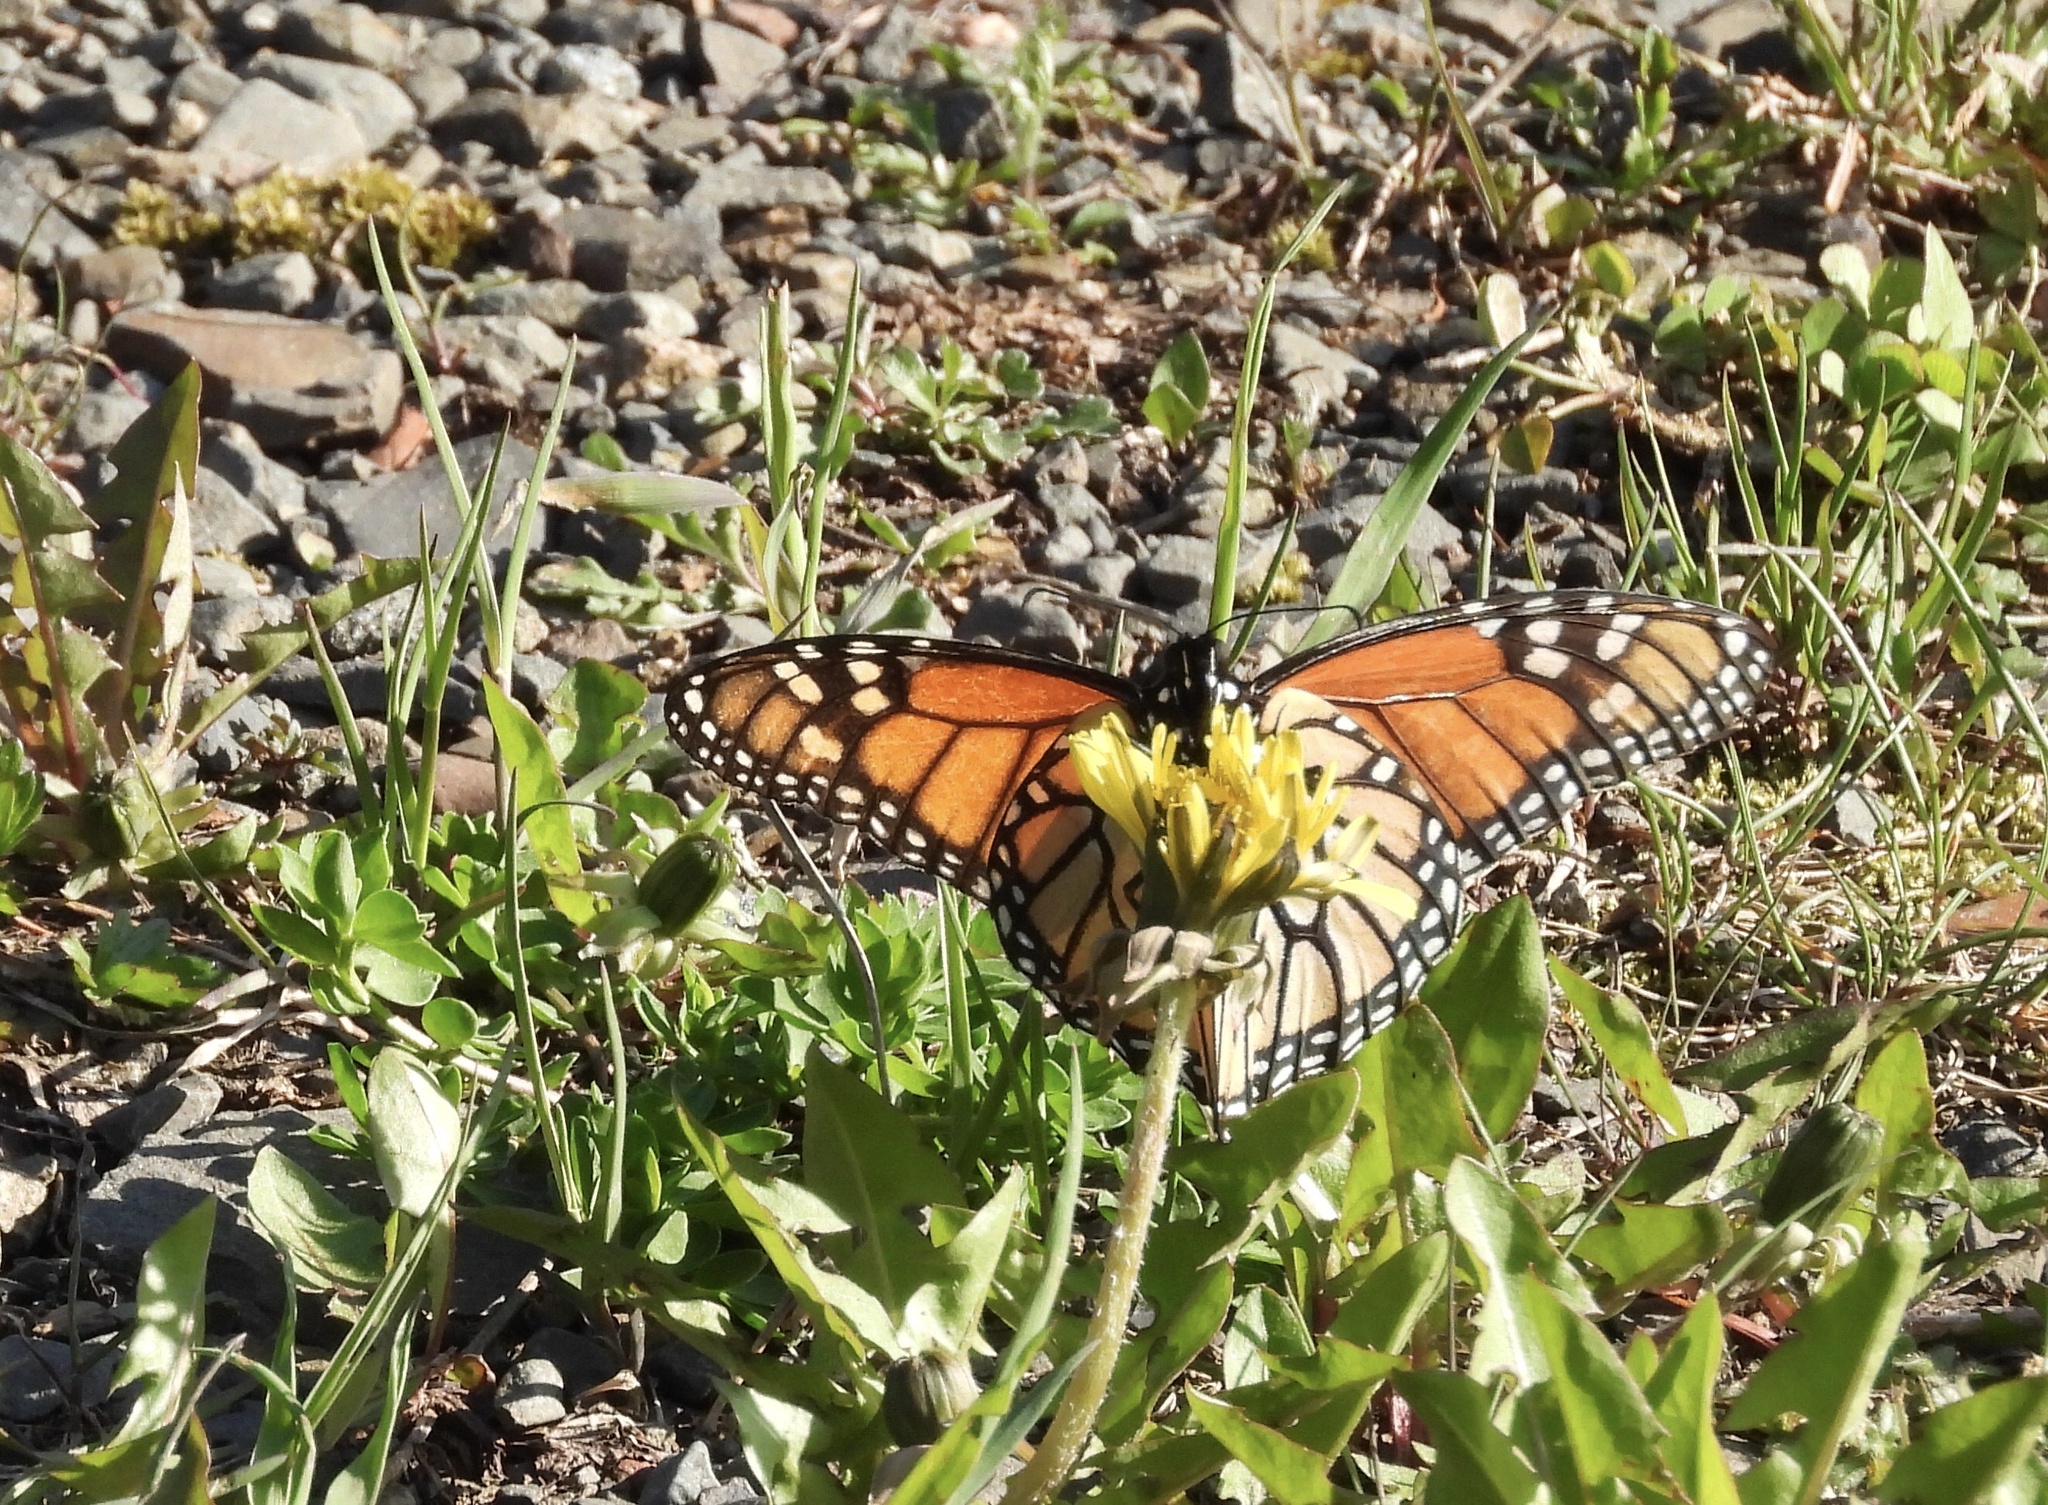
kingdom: Animalia
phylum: Arthropoda
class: Insecta
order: Lepidoptera
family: Nymphalidae
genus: Danaus
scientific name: Danaus plexippus
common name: Monarch
